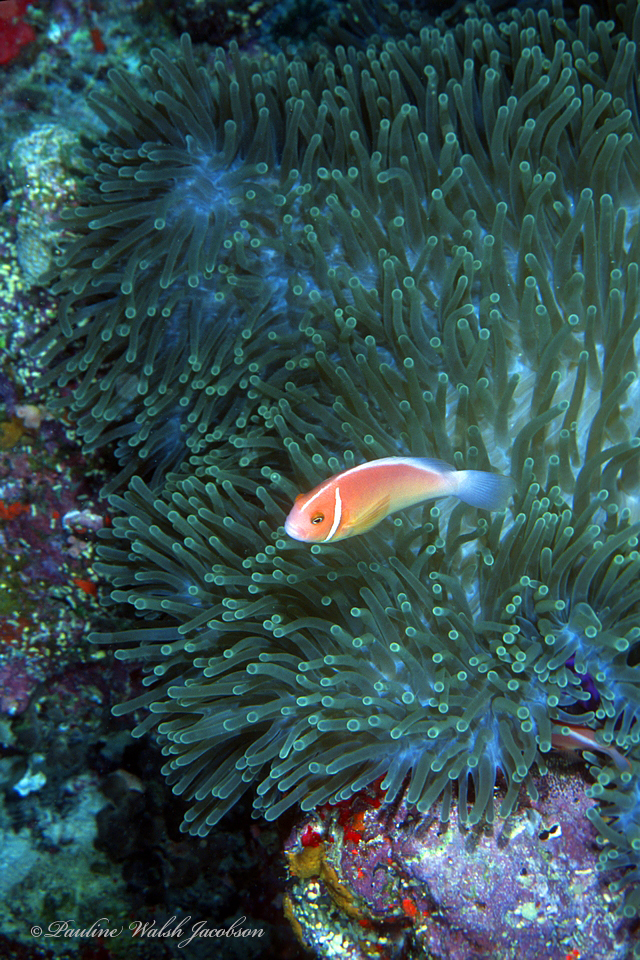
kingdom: Animalia
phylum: Chordata
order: Perciformes
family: Pomacentridae
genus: Amphiprion
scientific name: Amphiprion perideraion
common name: Pink anemonefish
